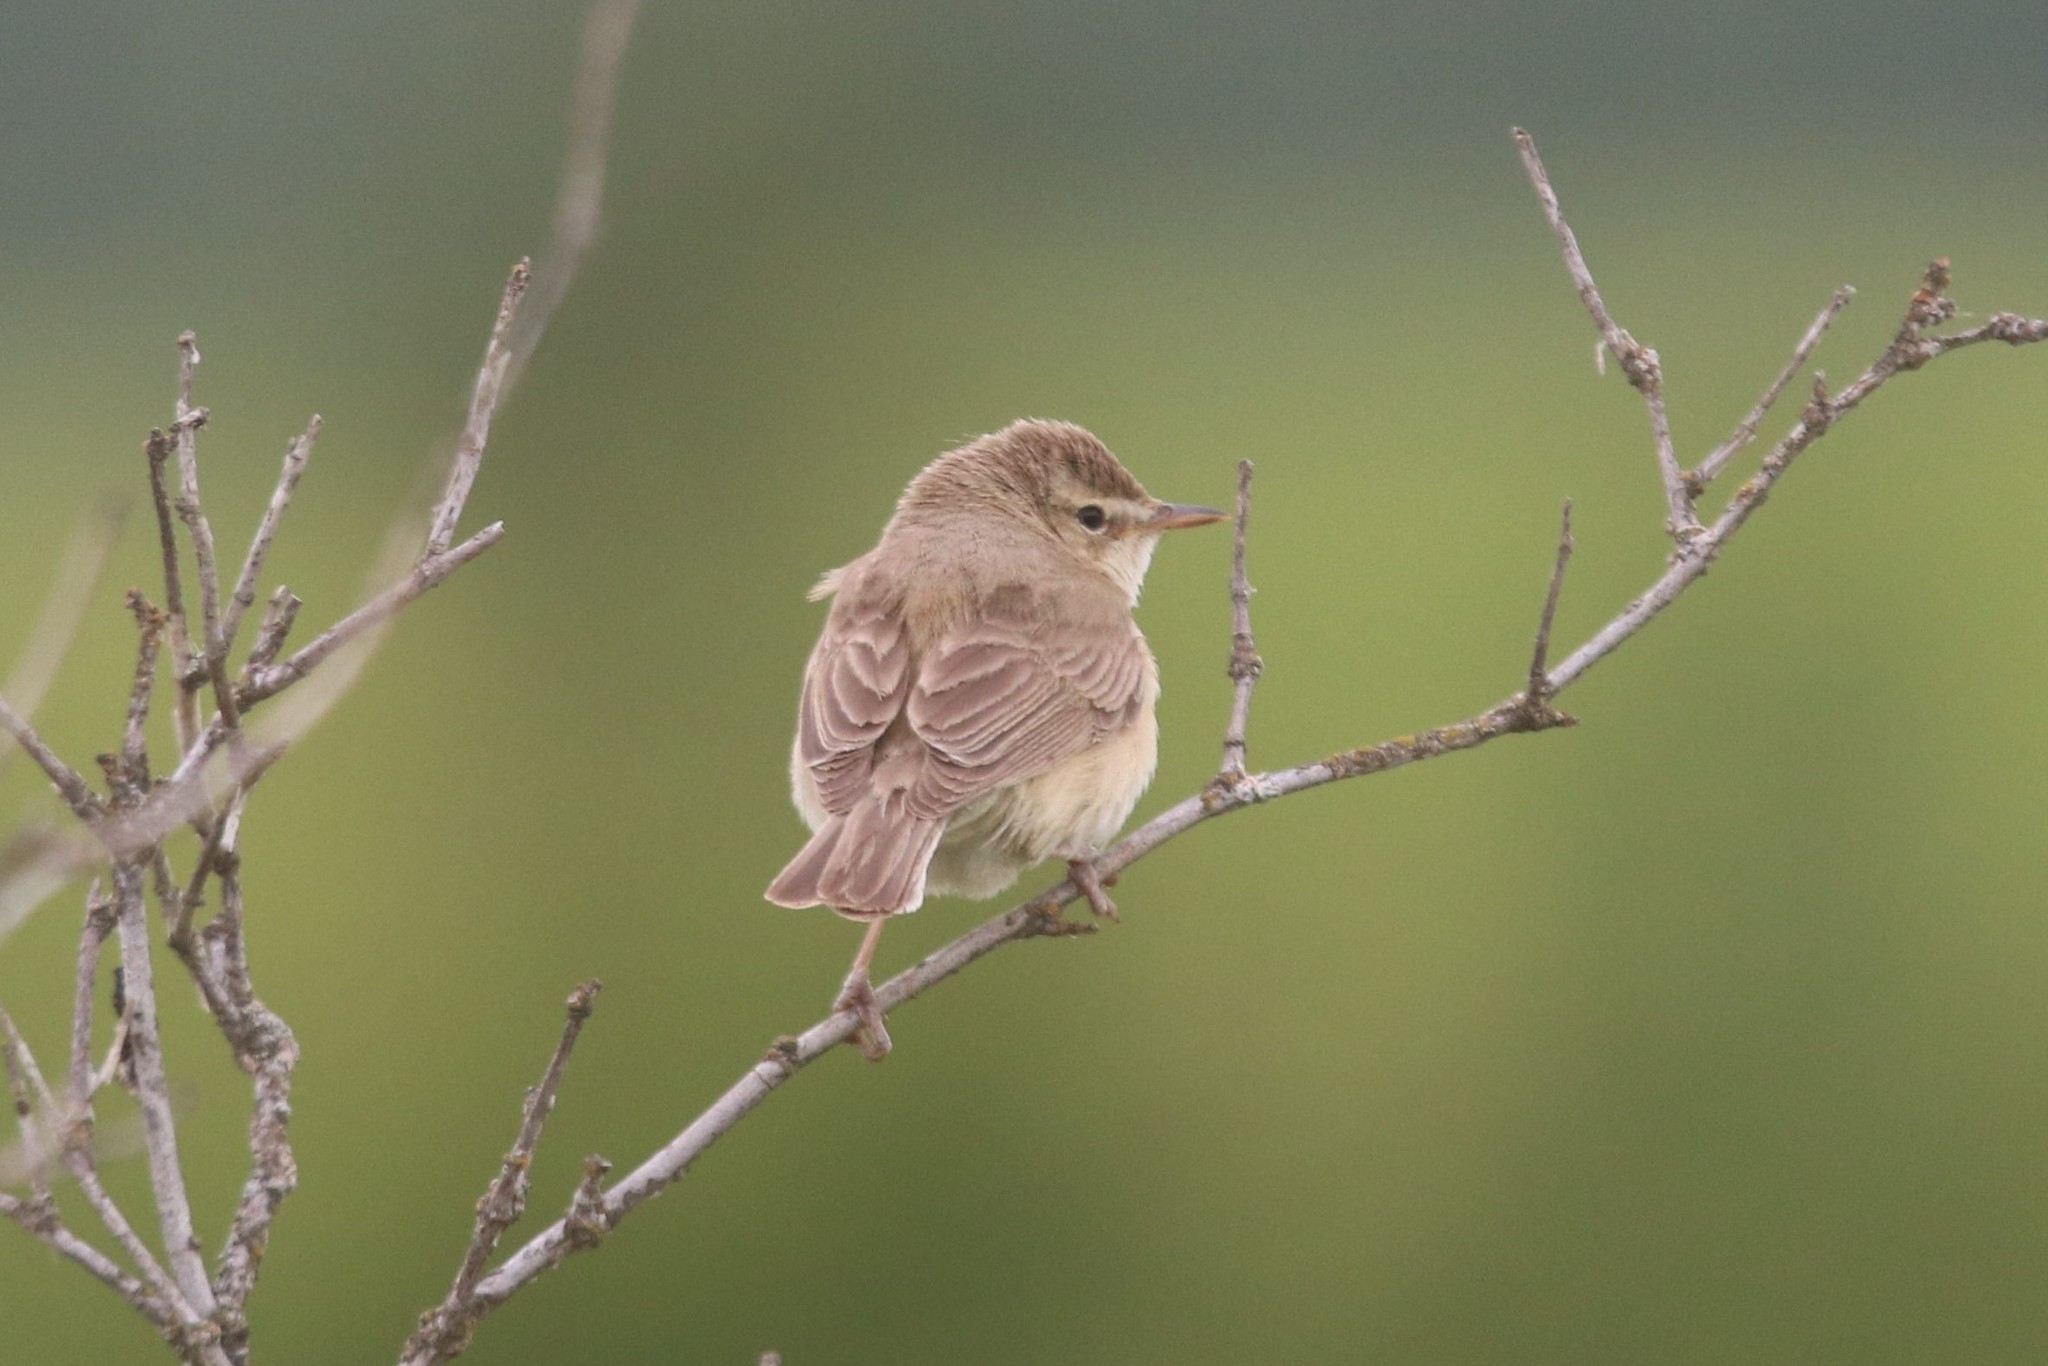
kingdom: Animalia
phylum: Chordata
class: Aves
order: Passeriformes
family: Acrocephalidae
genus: Iduna
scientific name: Iduna caligata
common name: Booted warbler
